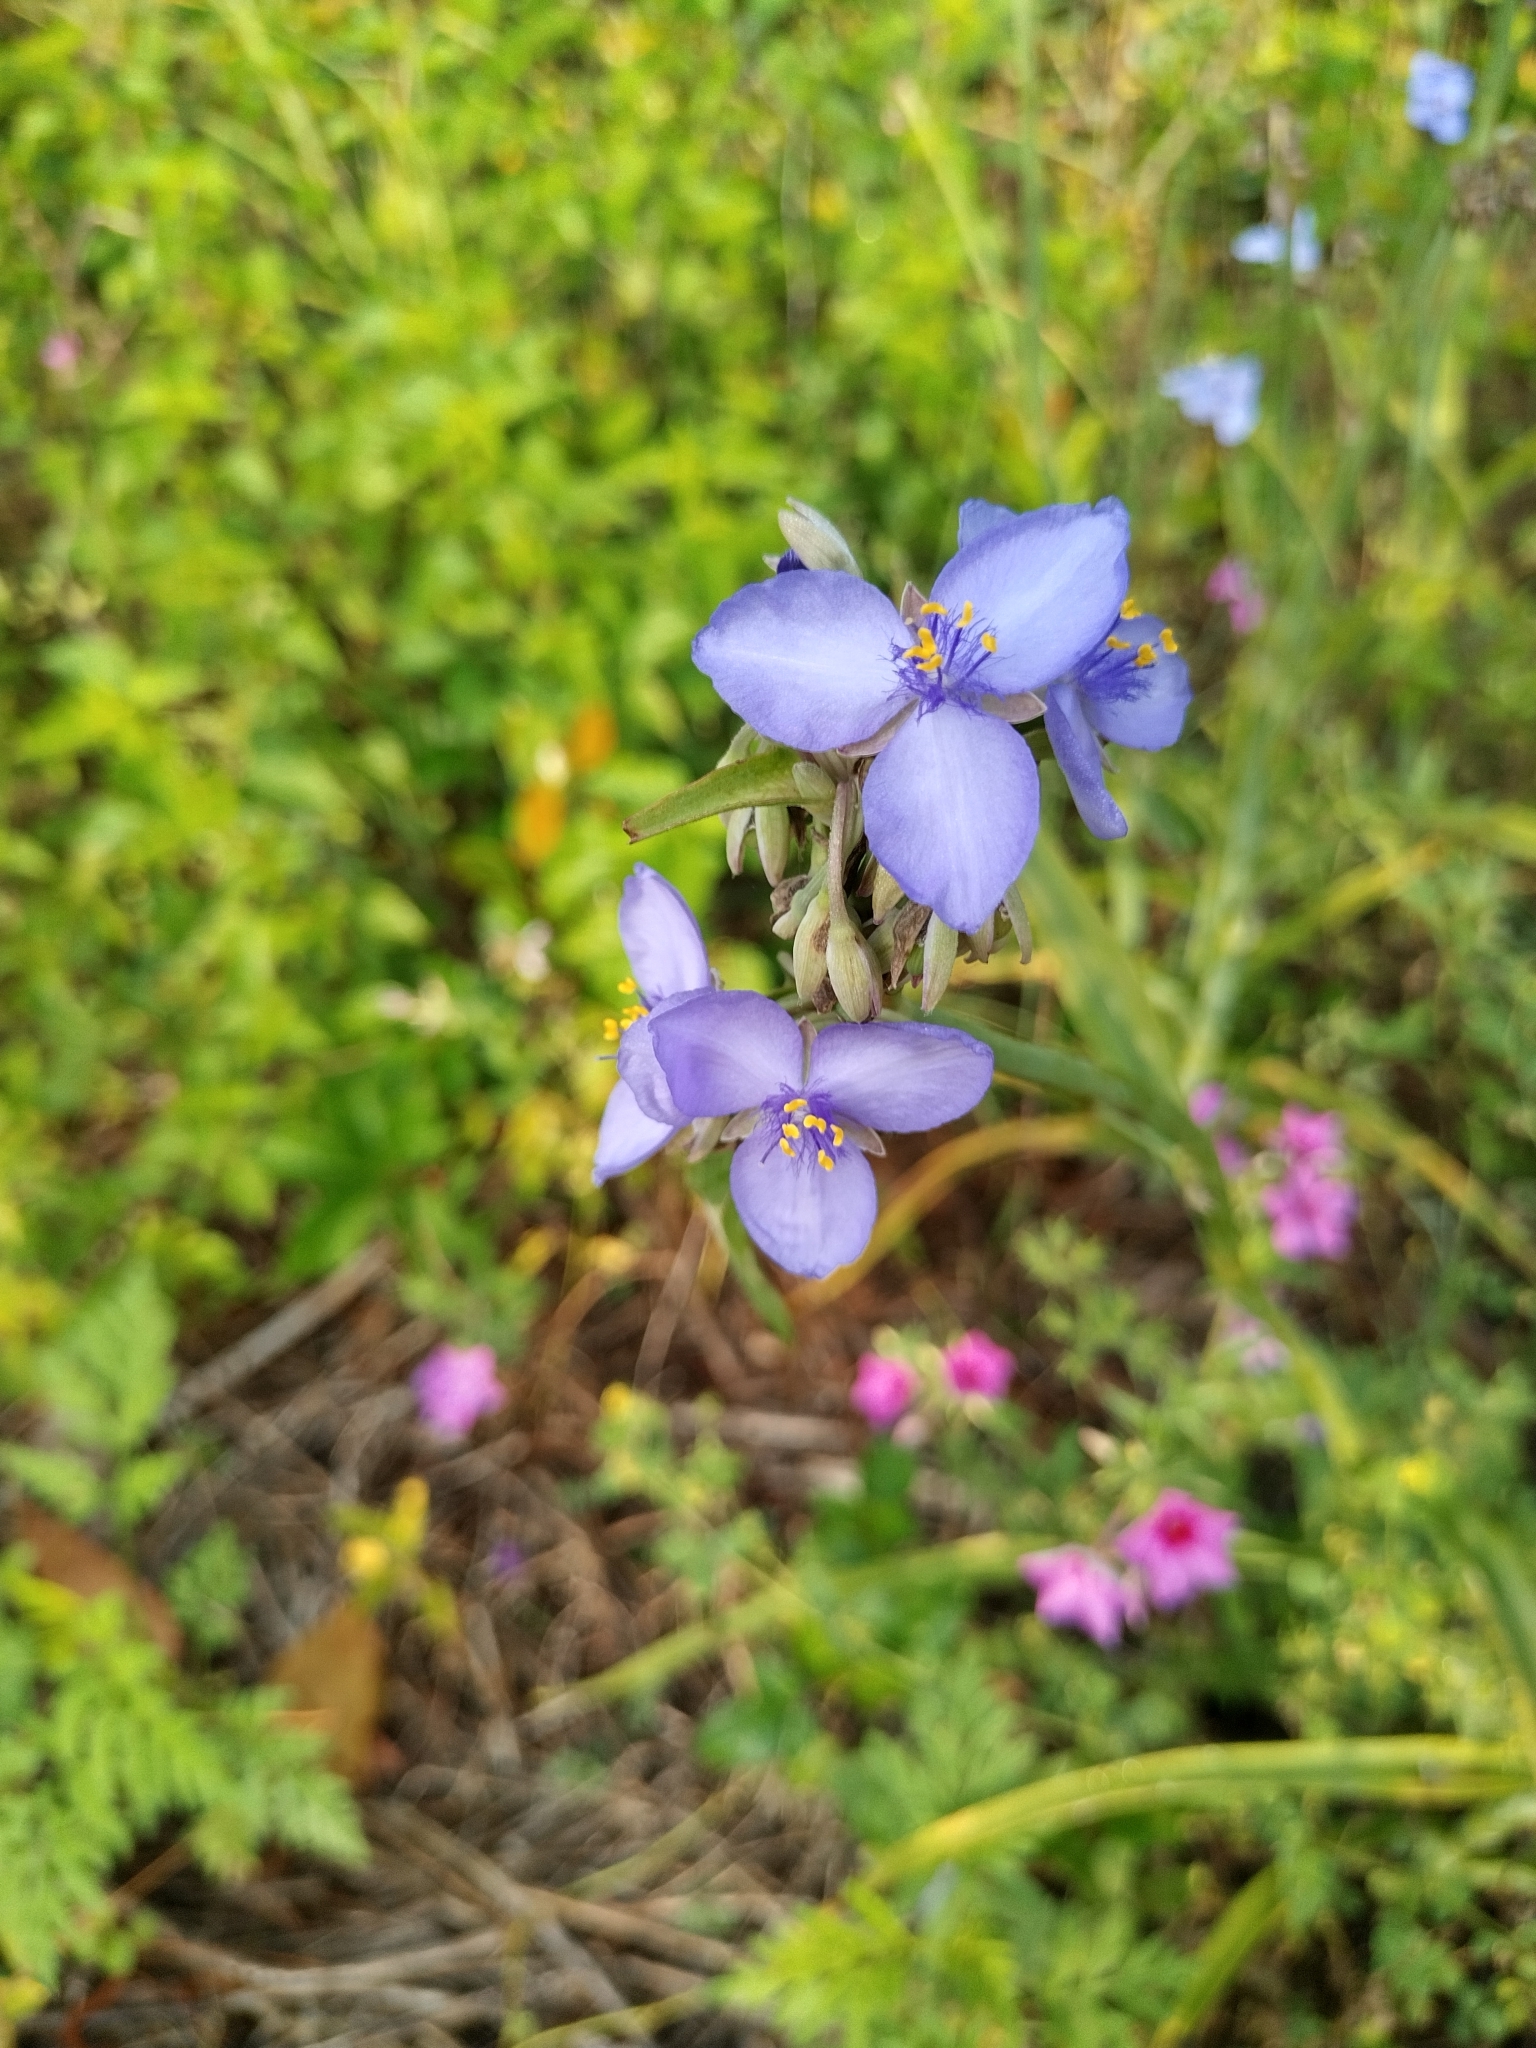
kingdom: Plantae
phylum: Tracheophyta
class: Liliopsida
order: Commelinales
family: Commelinaceae
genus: Tradescantia
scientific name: Tradescantia ohiensis
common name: Ohio spiderwort
